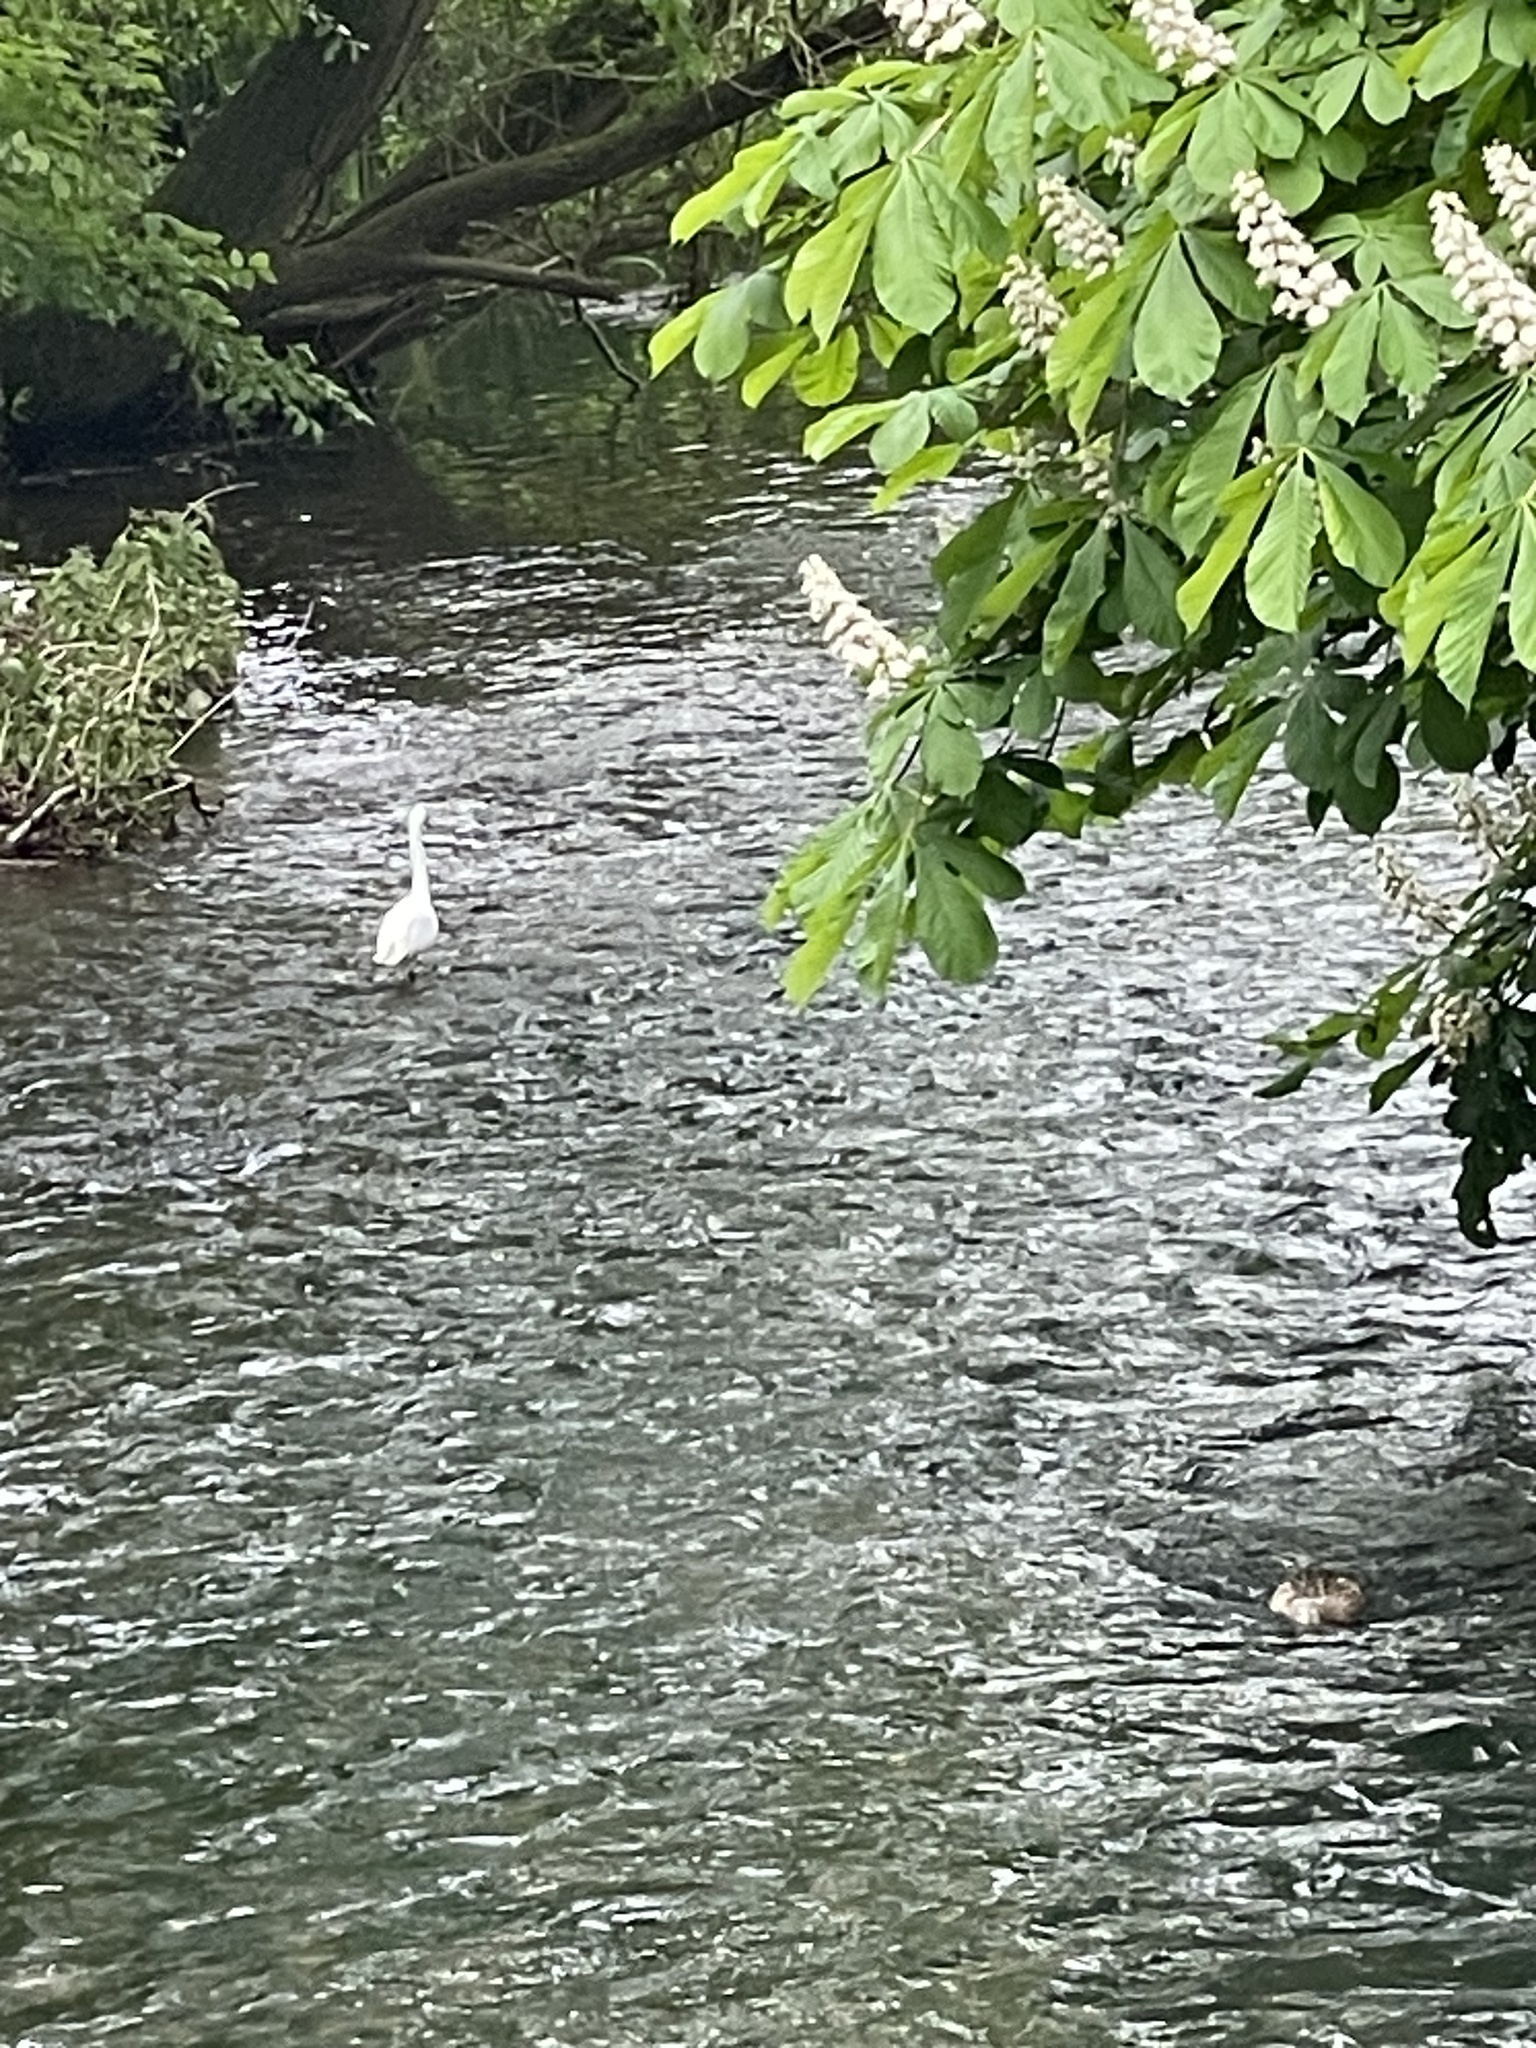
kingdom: Animalia
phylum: Chordata
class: Aves
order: Pelecaniformes
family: Ardeidae
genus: Egretta
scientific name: Egretta garzetta
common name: Little egret
